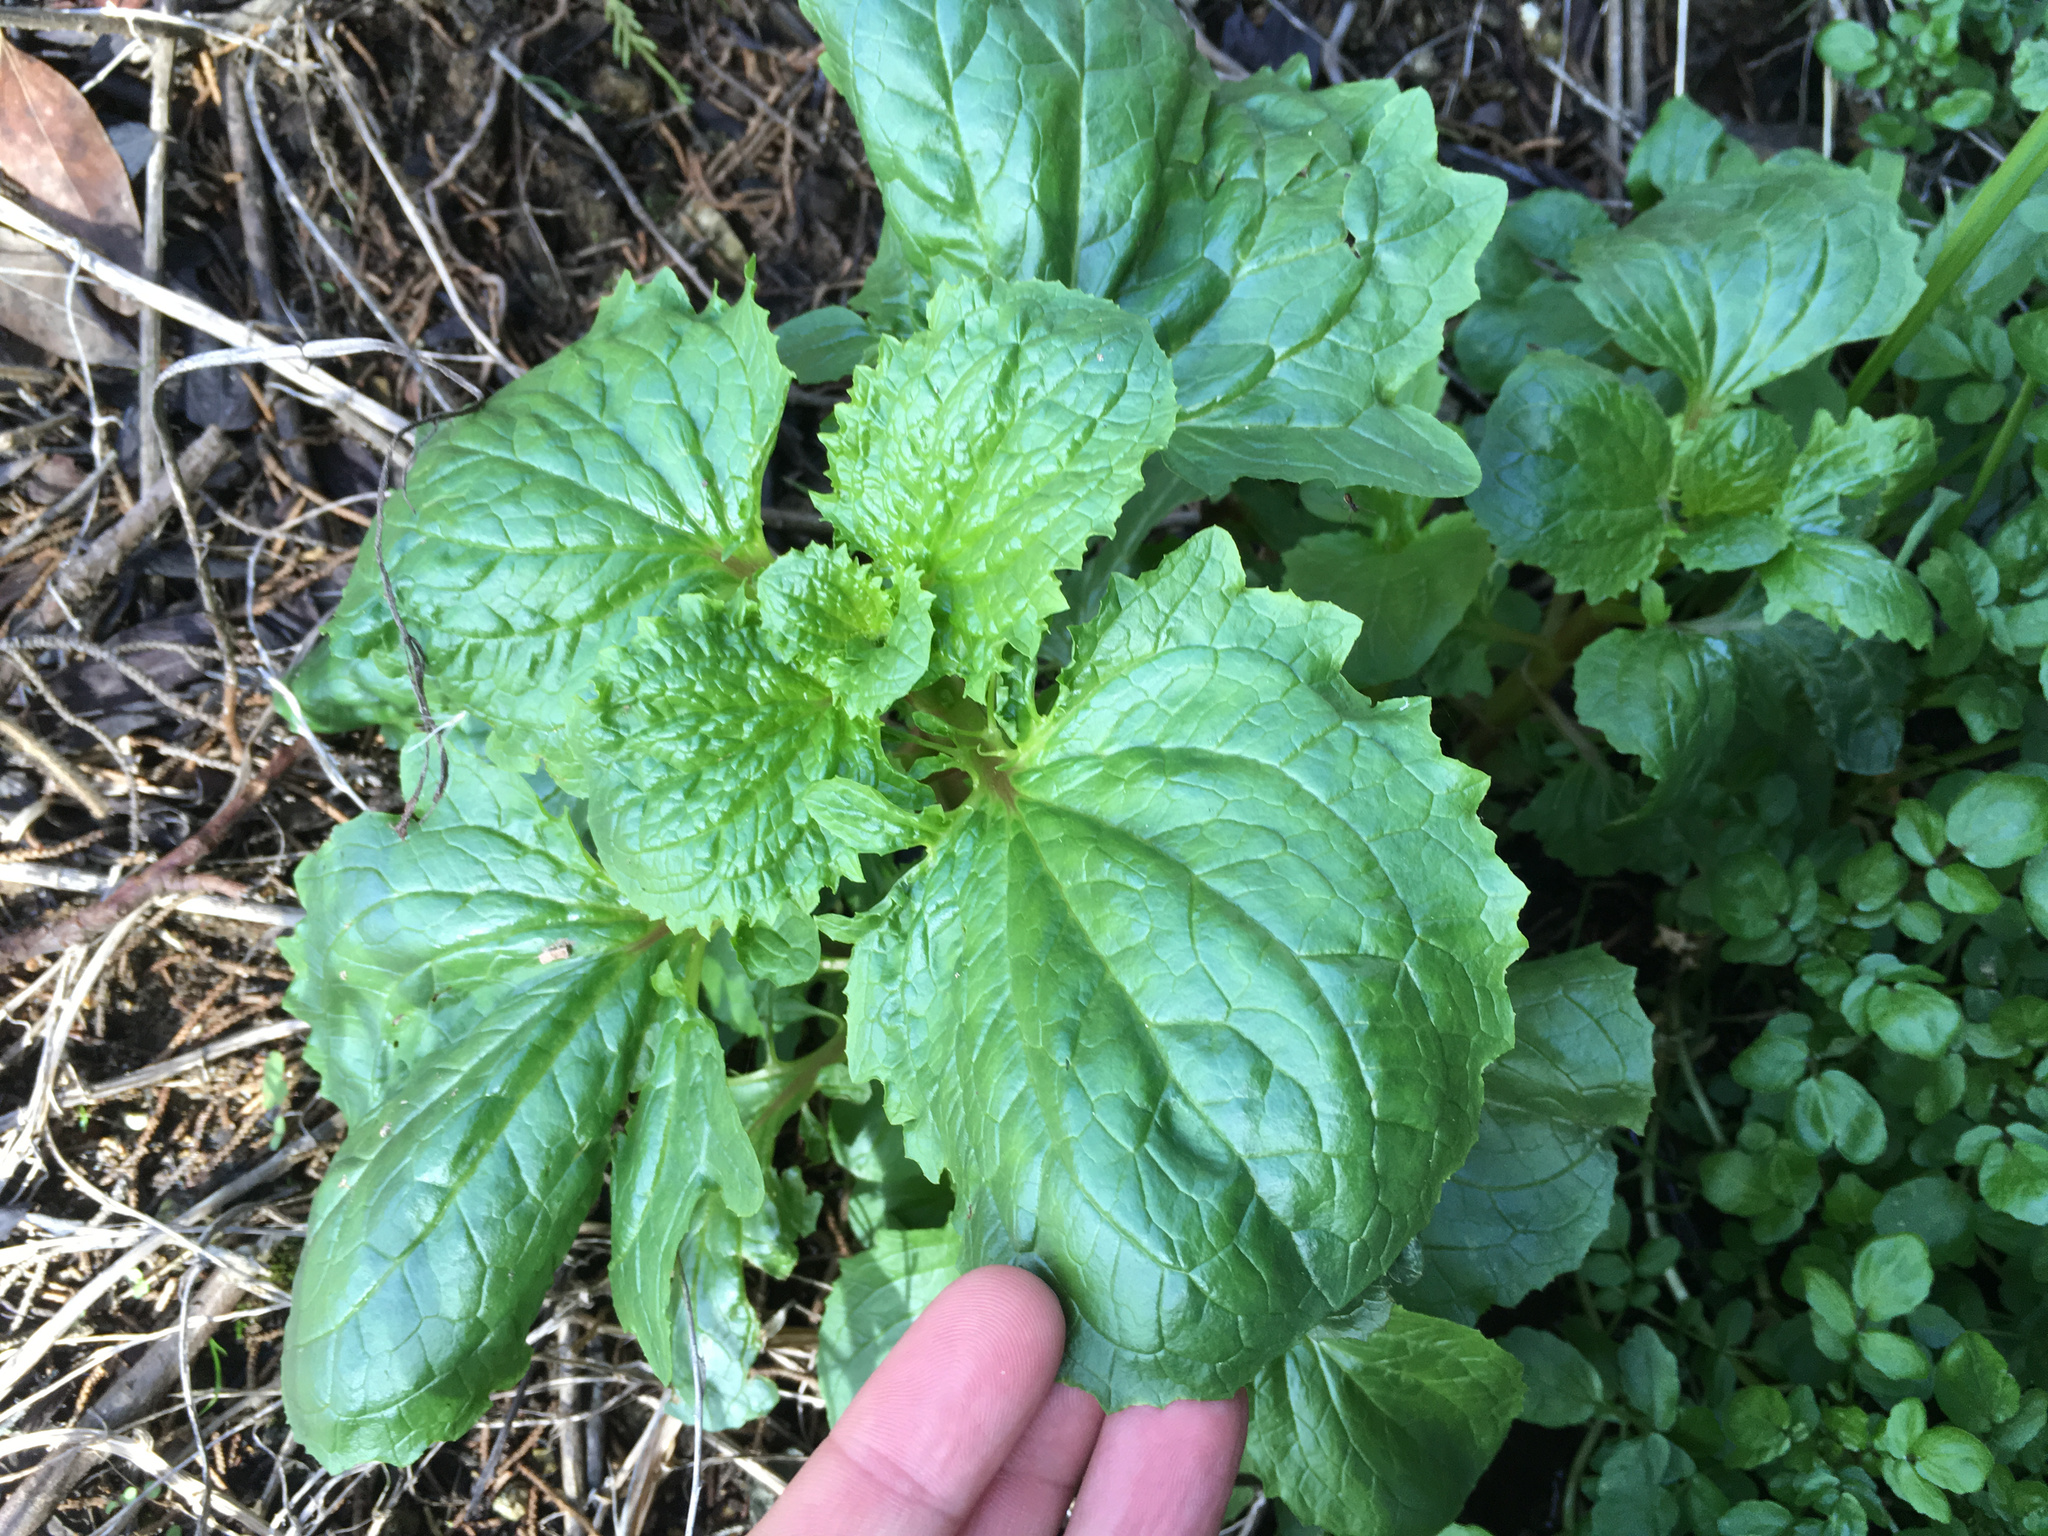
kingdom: Plantae
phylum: Tracheophyta
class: Magnoliopsida
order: Lamiales
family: Phrymaceae
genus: Erythranthe
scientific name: Erythranthe grandis
